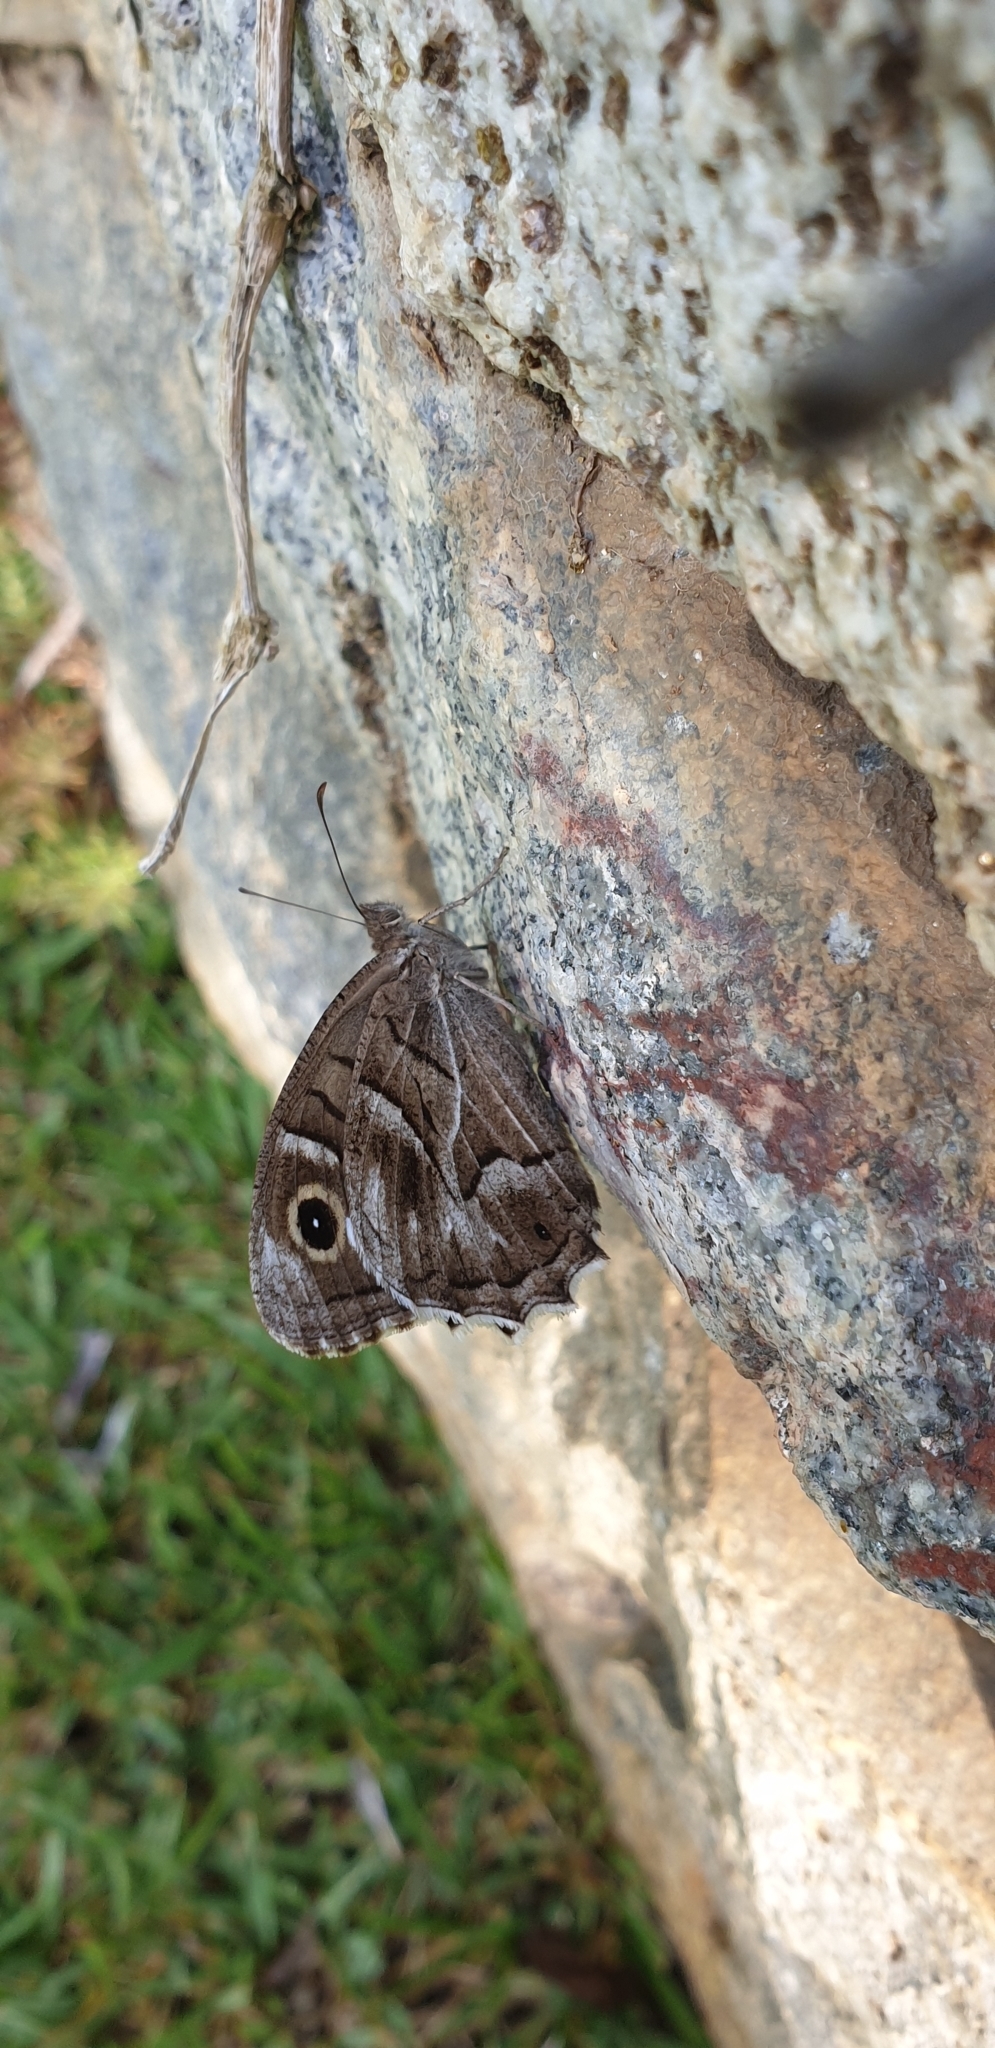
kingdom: Animalia
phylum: Arthropoda
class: Insecta
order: Lepidoptera
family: Nymphalidae
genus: Hipparchia
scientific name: Hipparchia fidia
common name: Striped grayling
